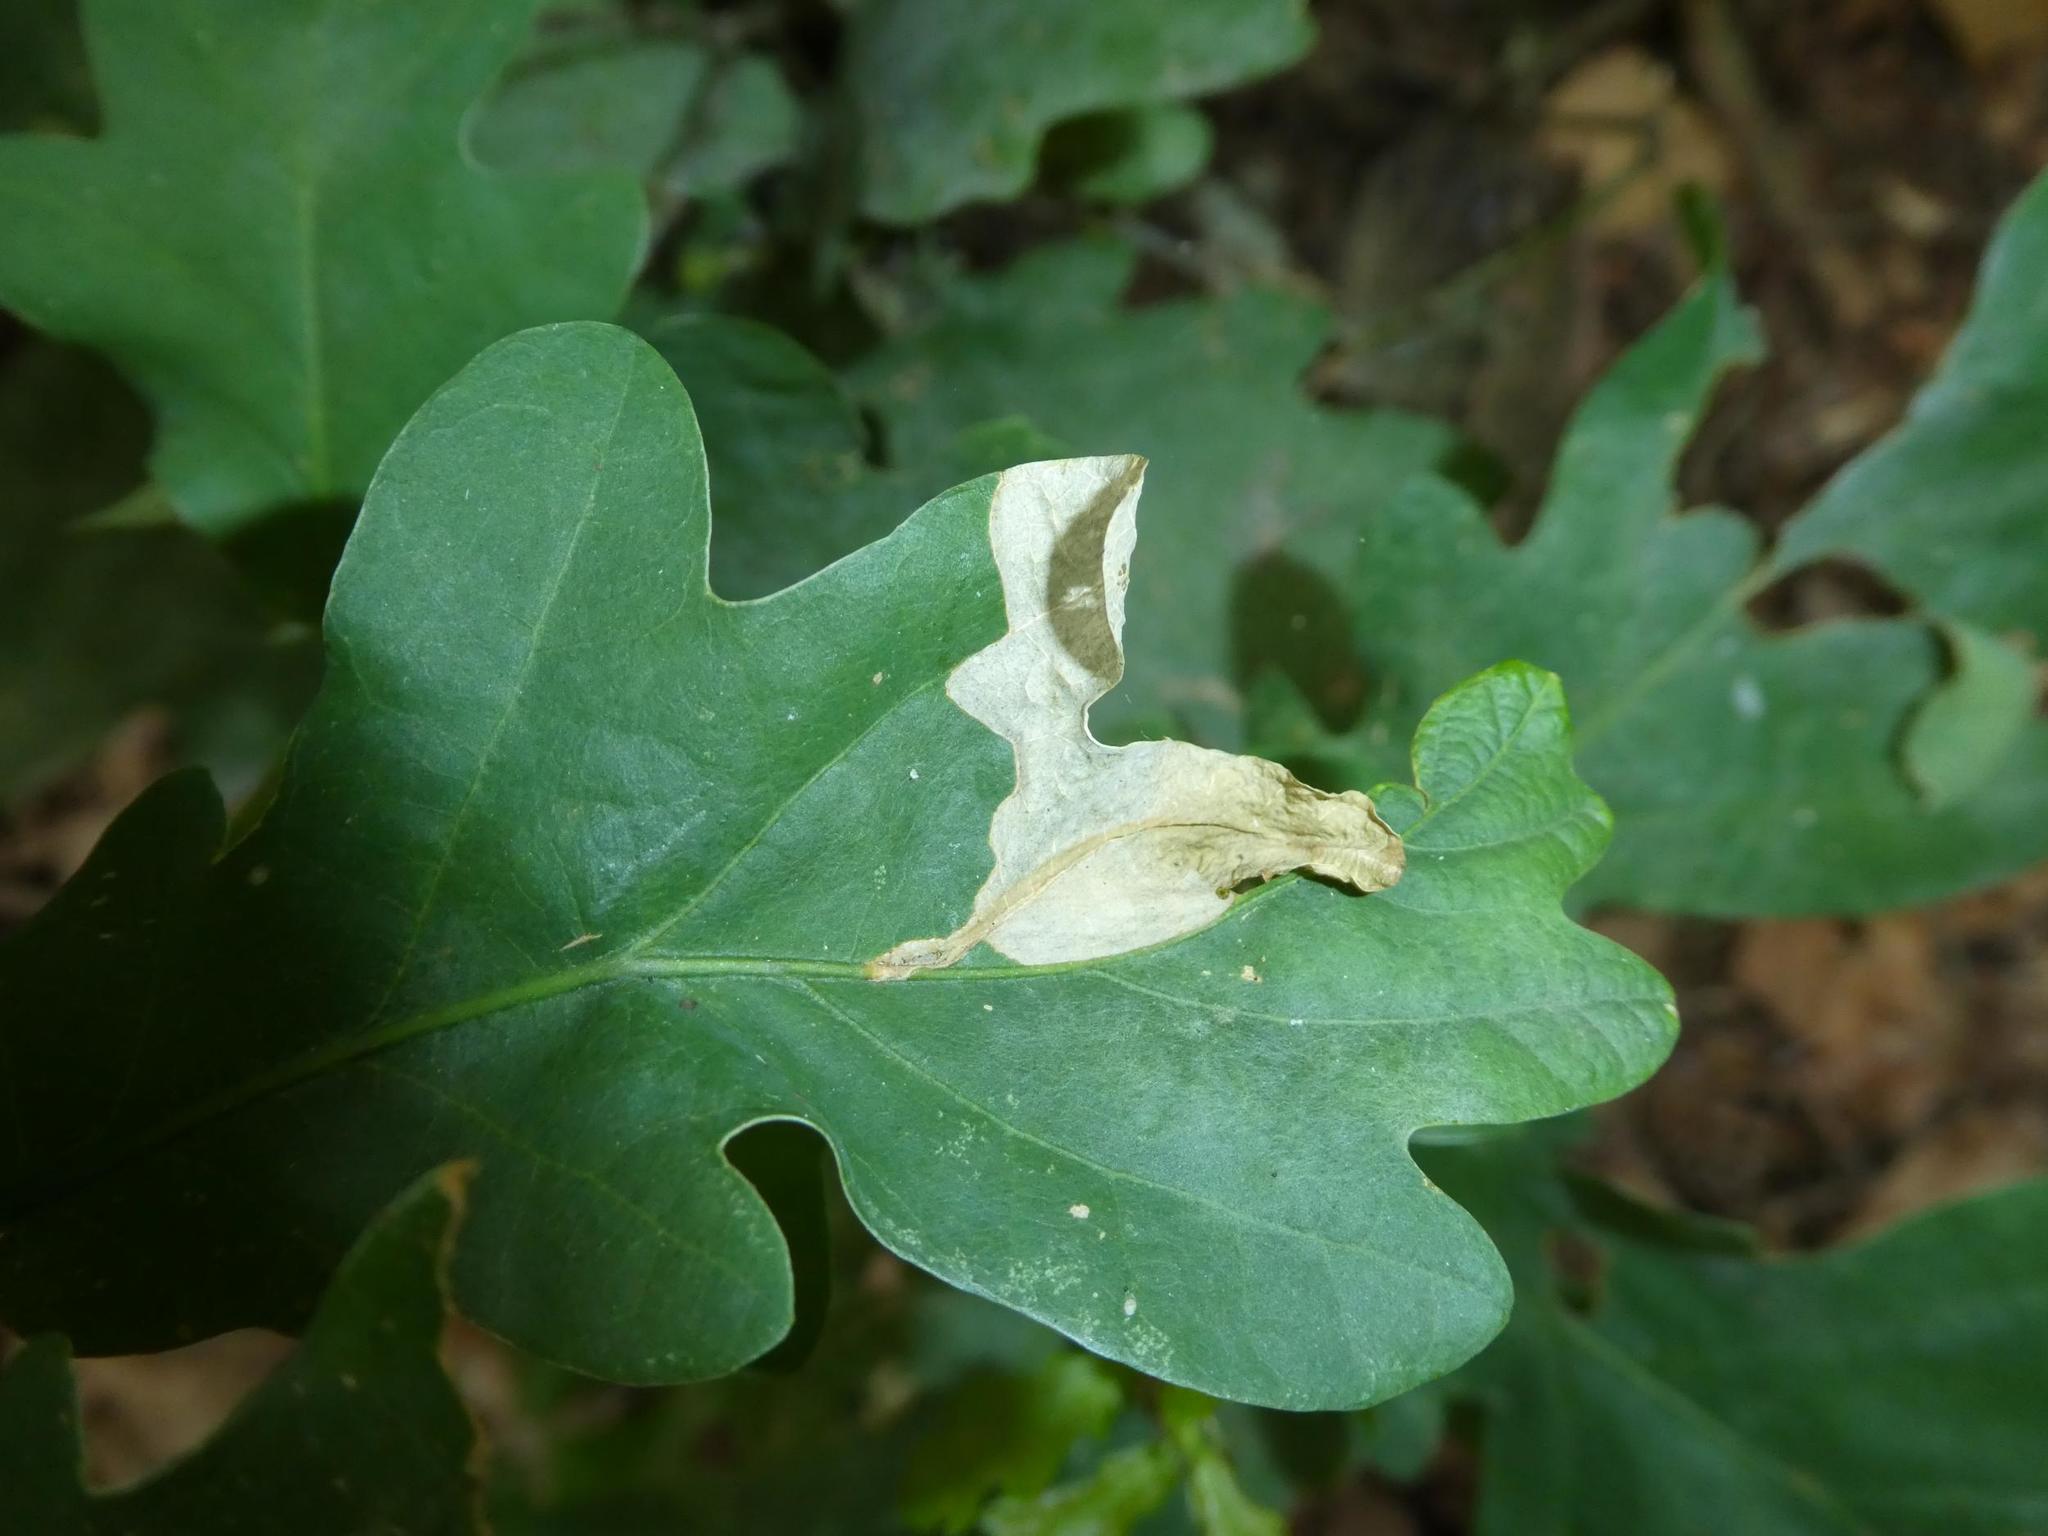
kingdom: Animalia
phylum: Arthropoda
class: Insecta
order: Coleoptera
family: Curculionidae
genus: Orchestes
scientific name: Orchestes quercus
